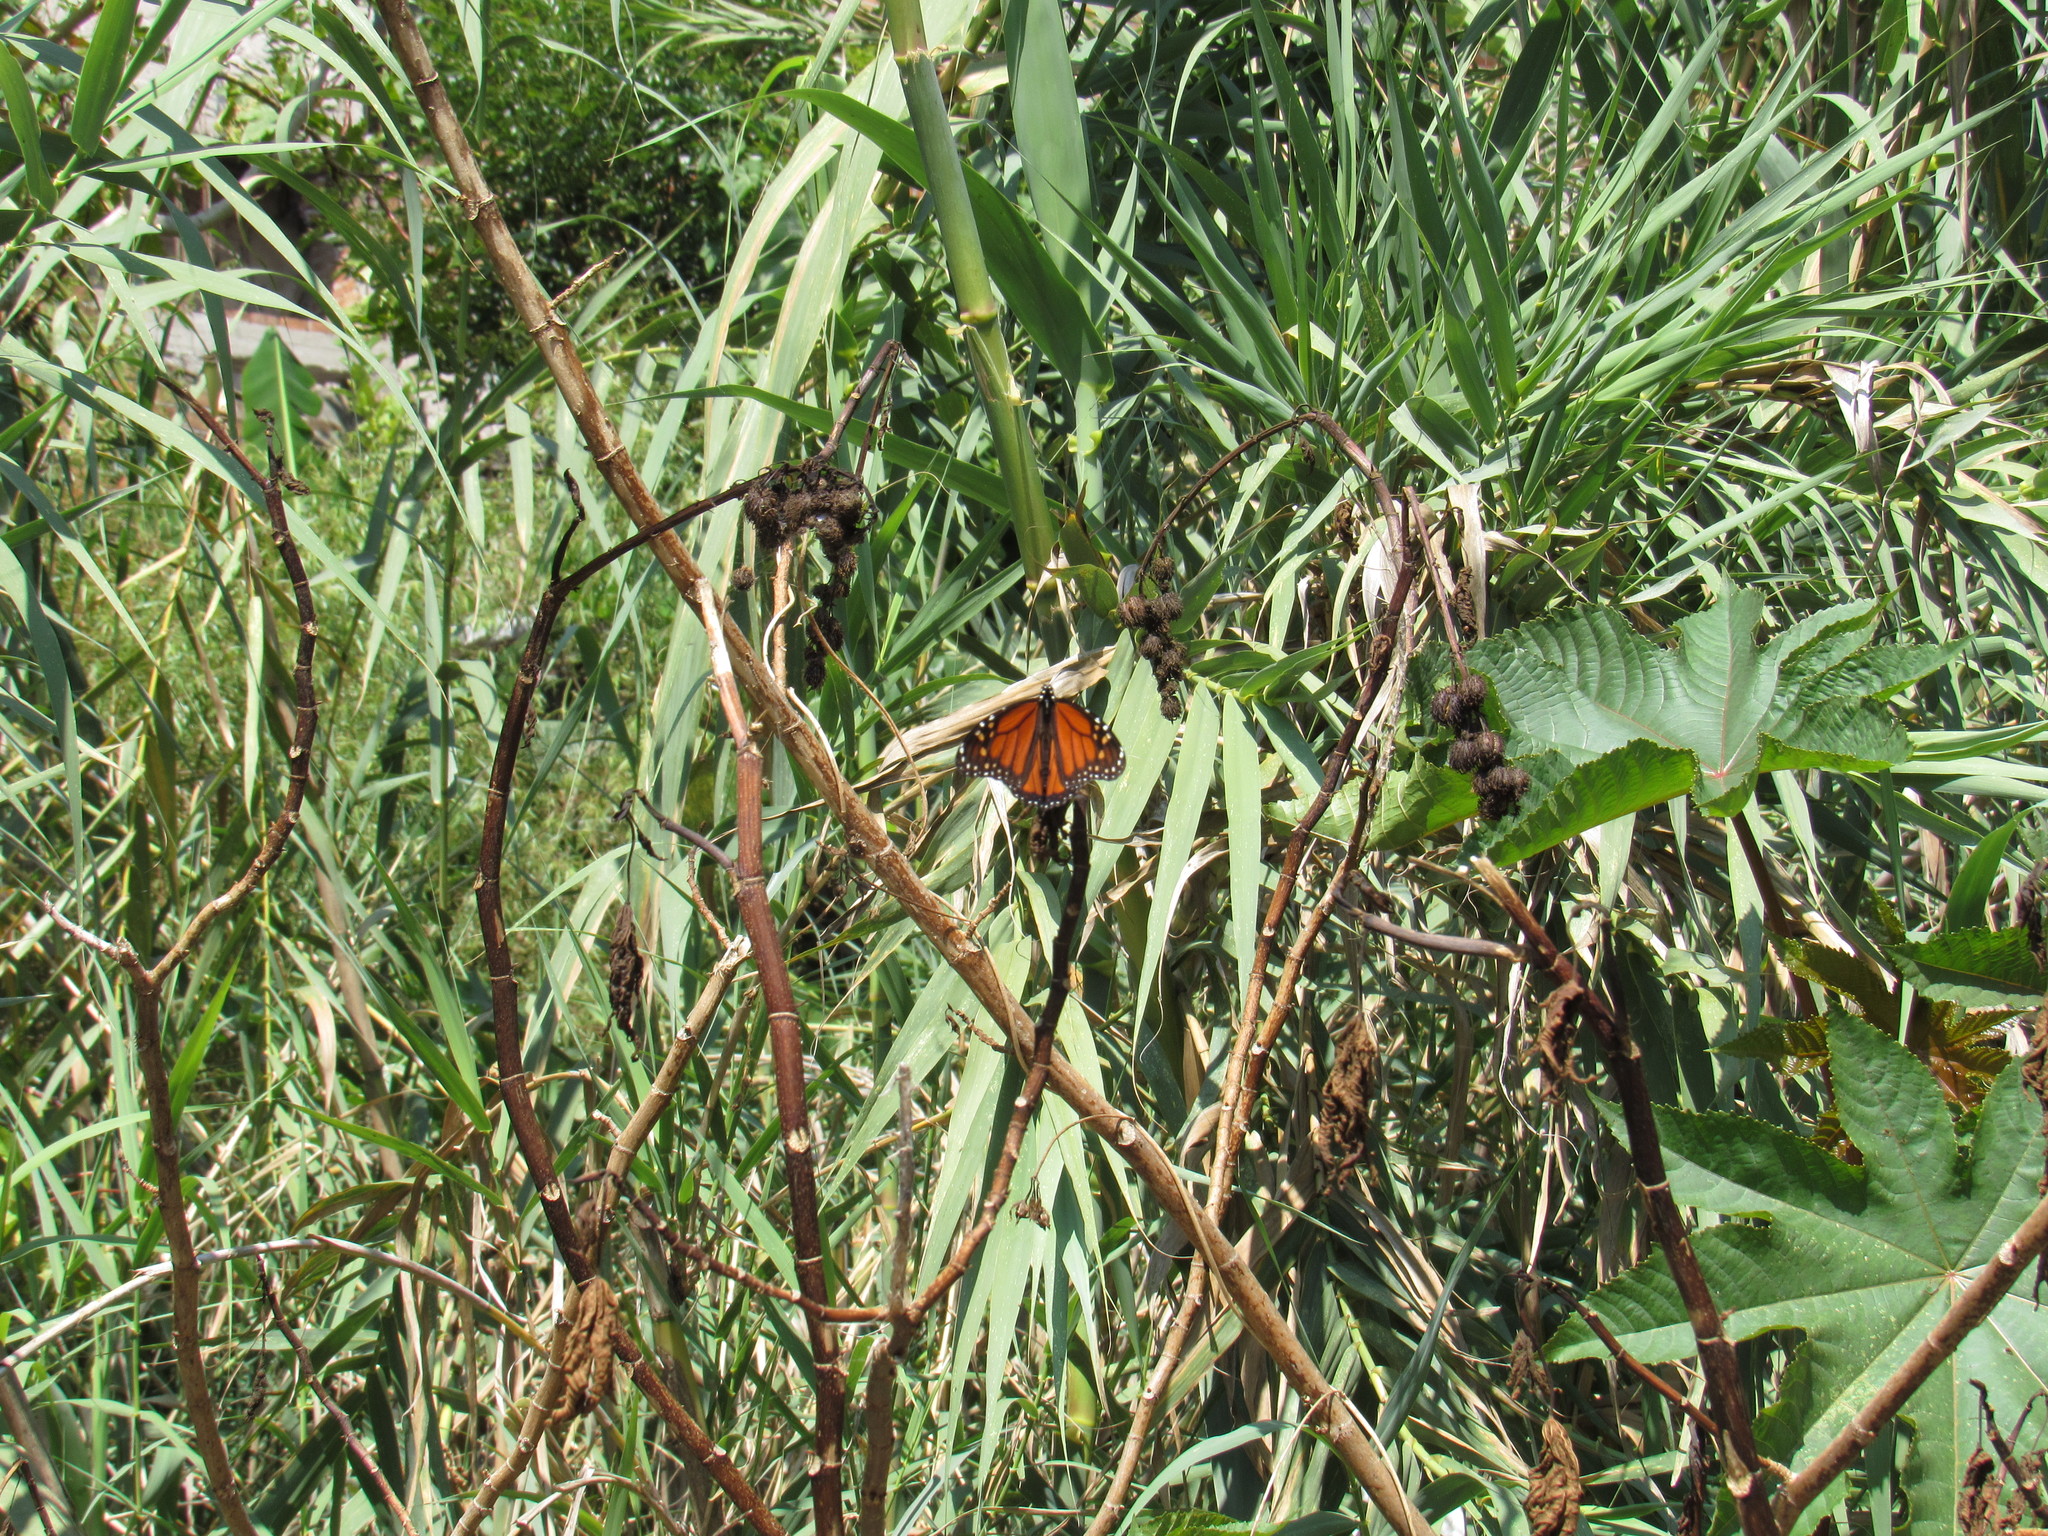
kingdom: Animalia
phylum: Arthropoda
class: Insecta
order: Lepidoptera
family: Nymphalidae
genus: Danaus
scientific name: Danaus plexippus
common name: Monarch
